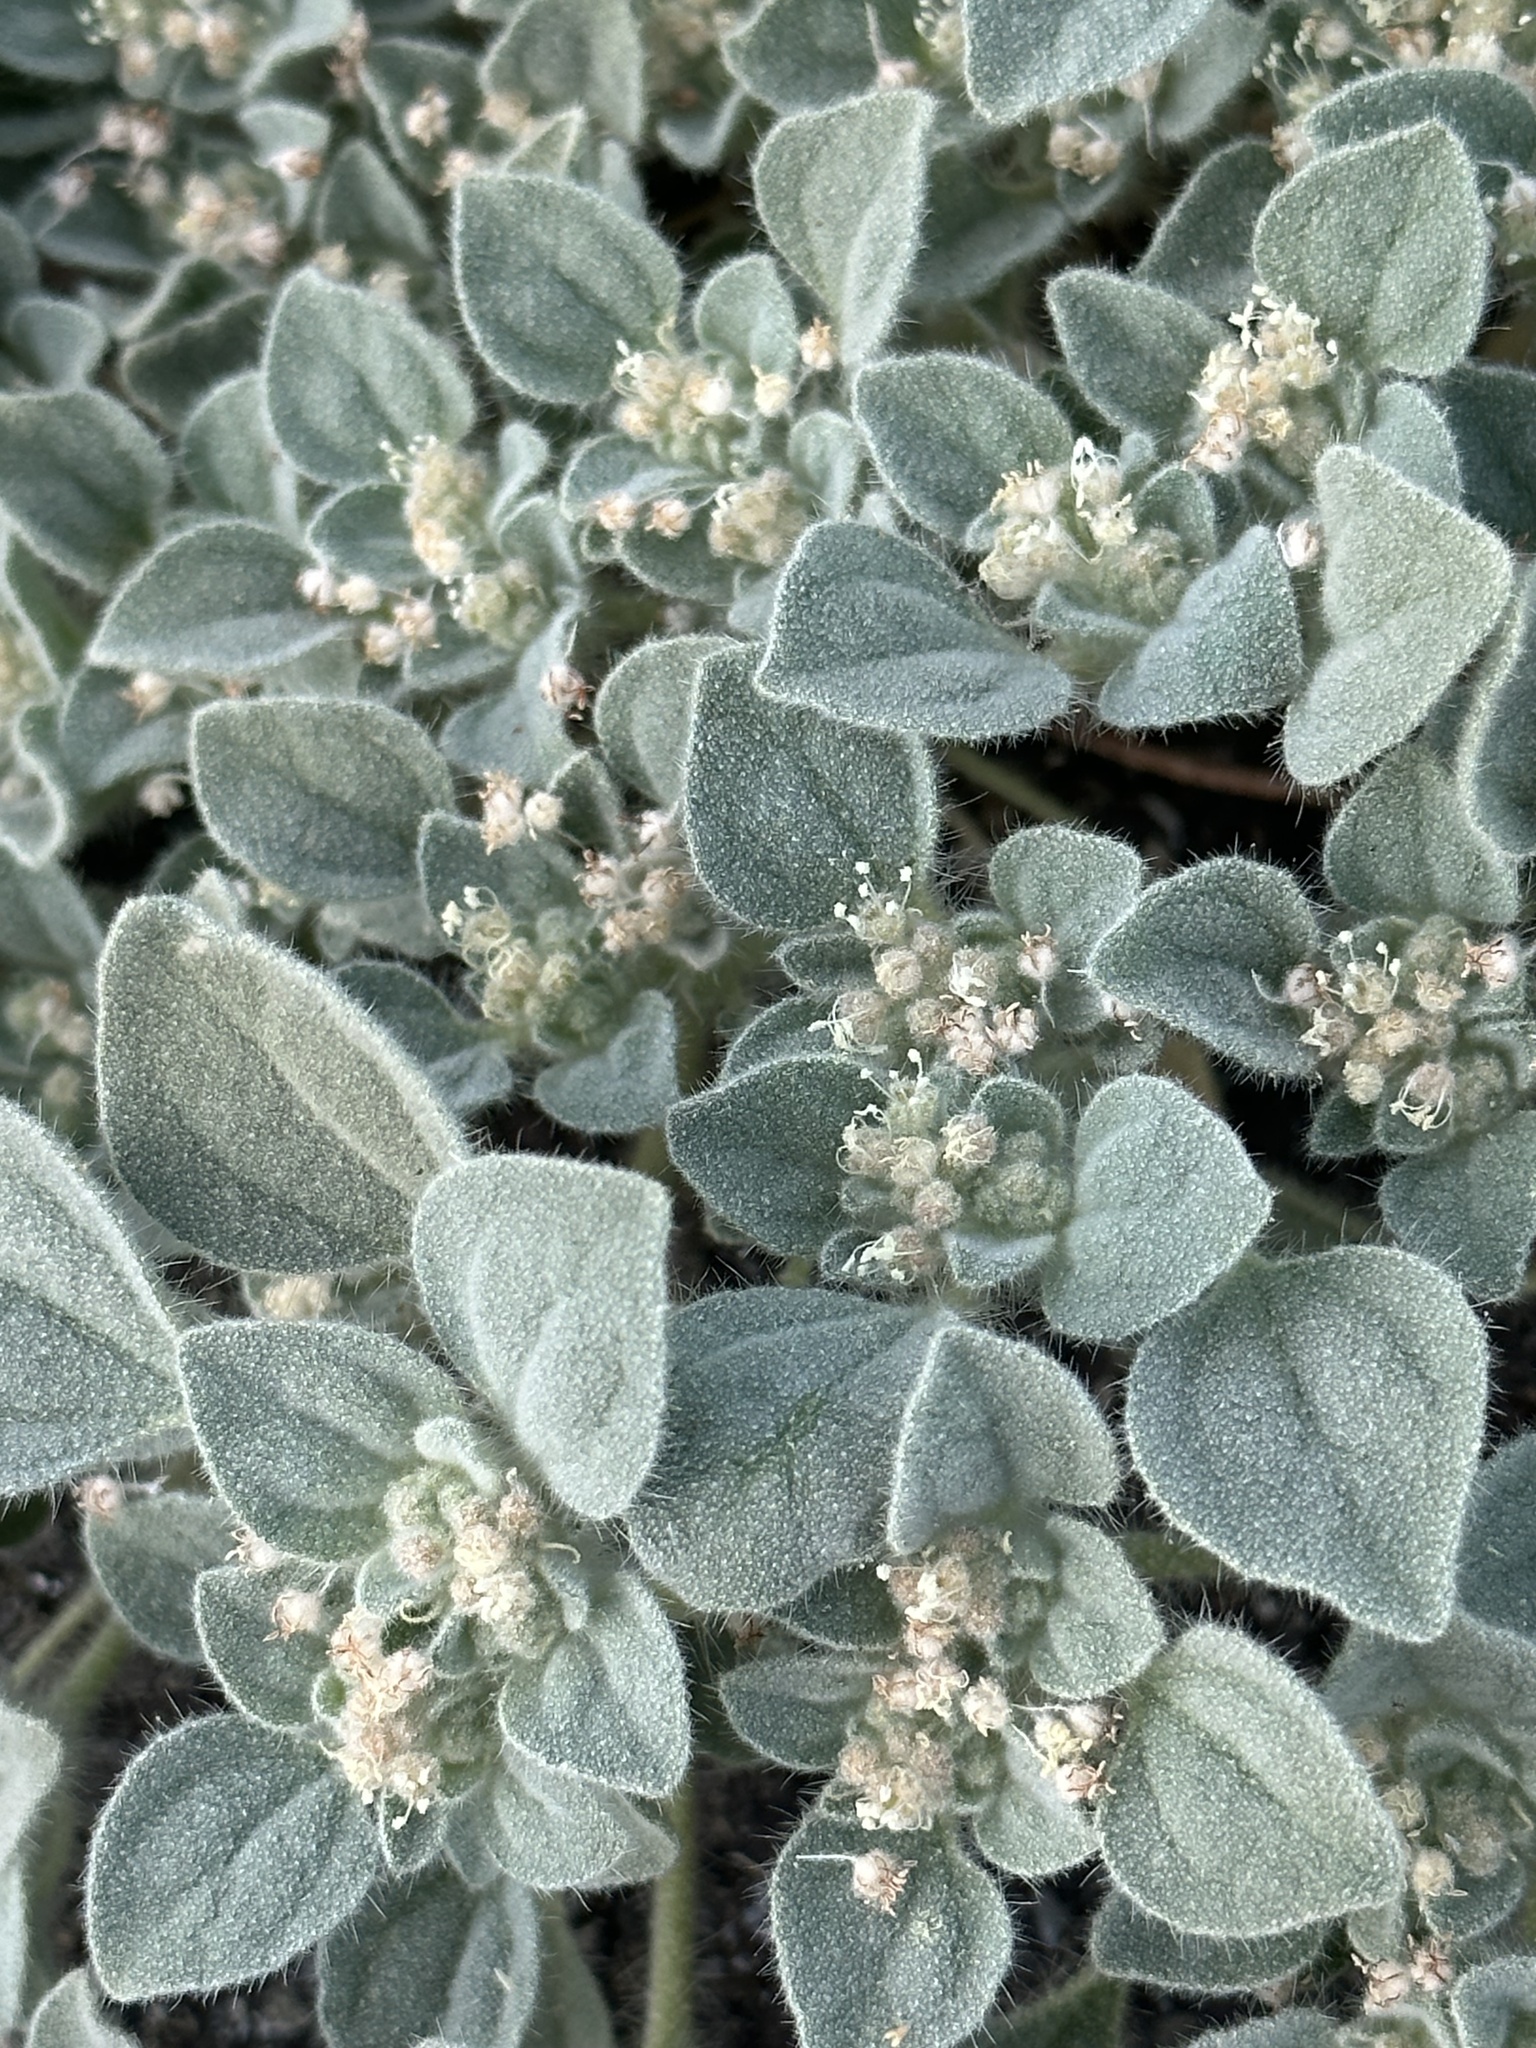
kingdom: Plantae
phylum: Tracheophyta
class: Magnoliopsida
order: Malpighiales
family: Euphorbiaceae
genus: Croton
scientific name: Croton setiger
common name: Dove weed
